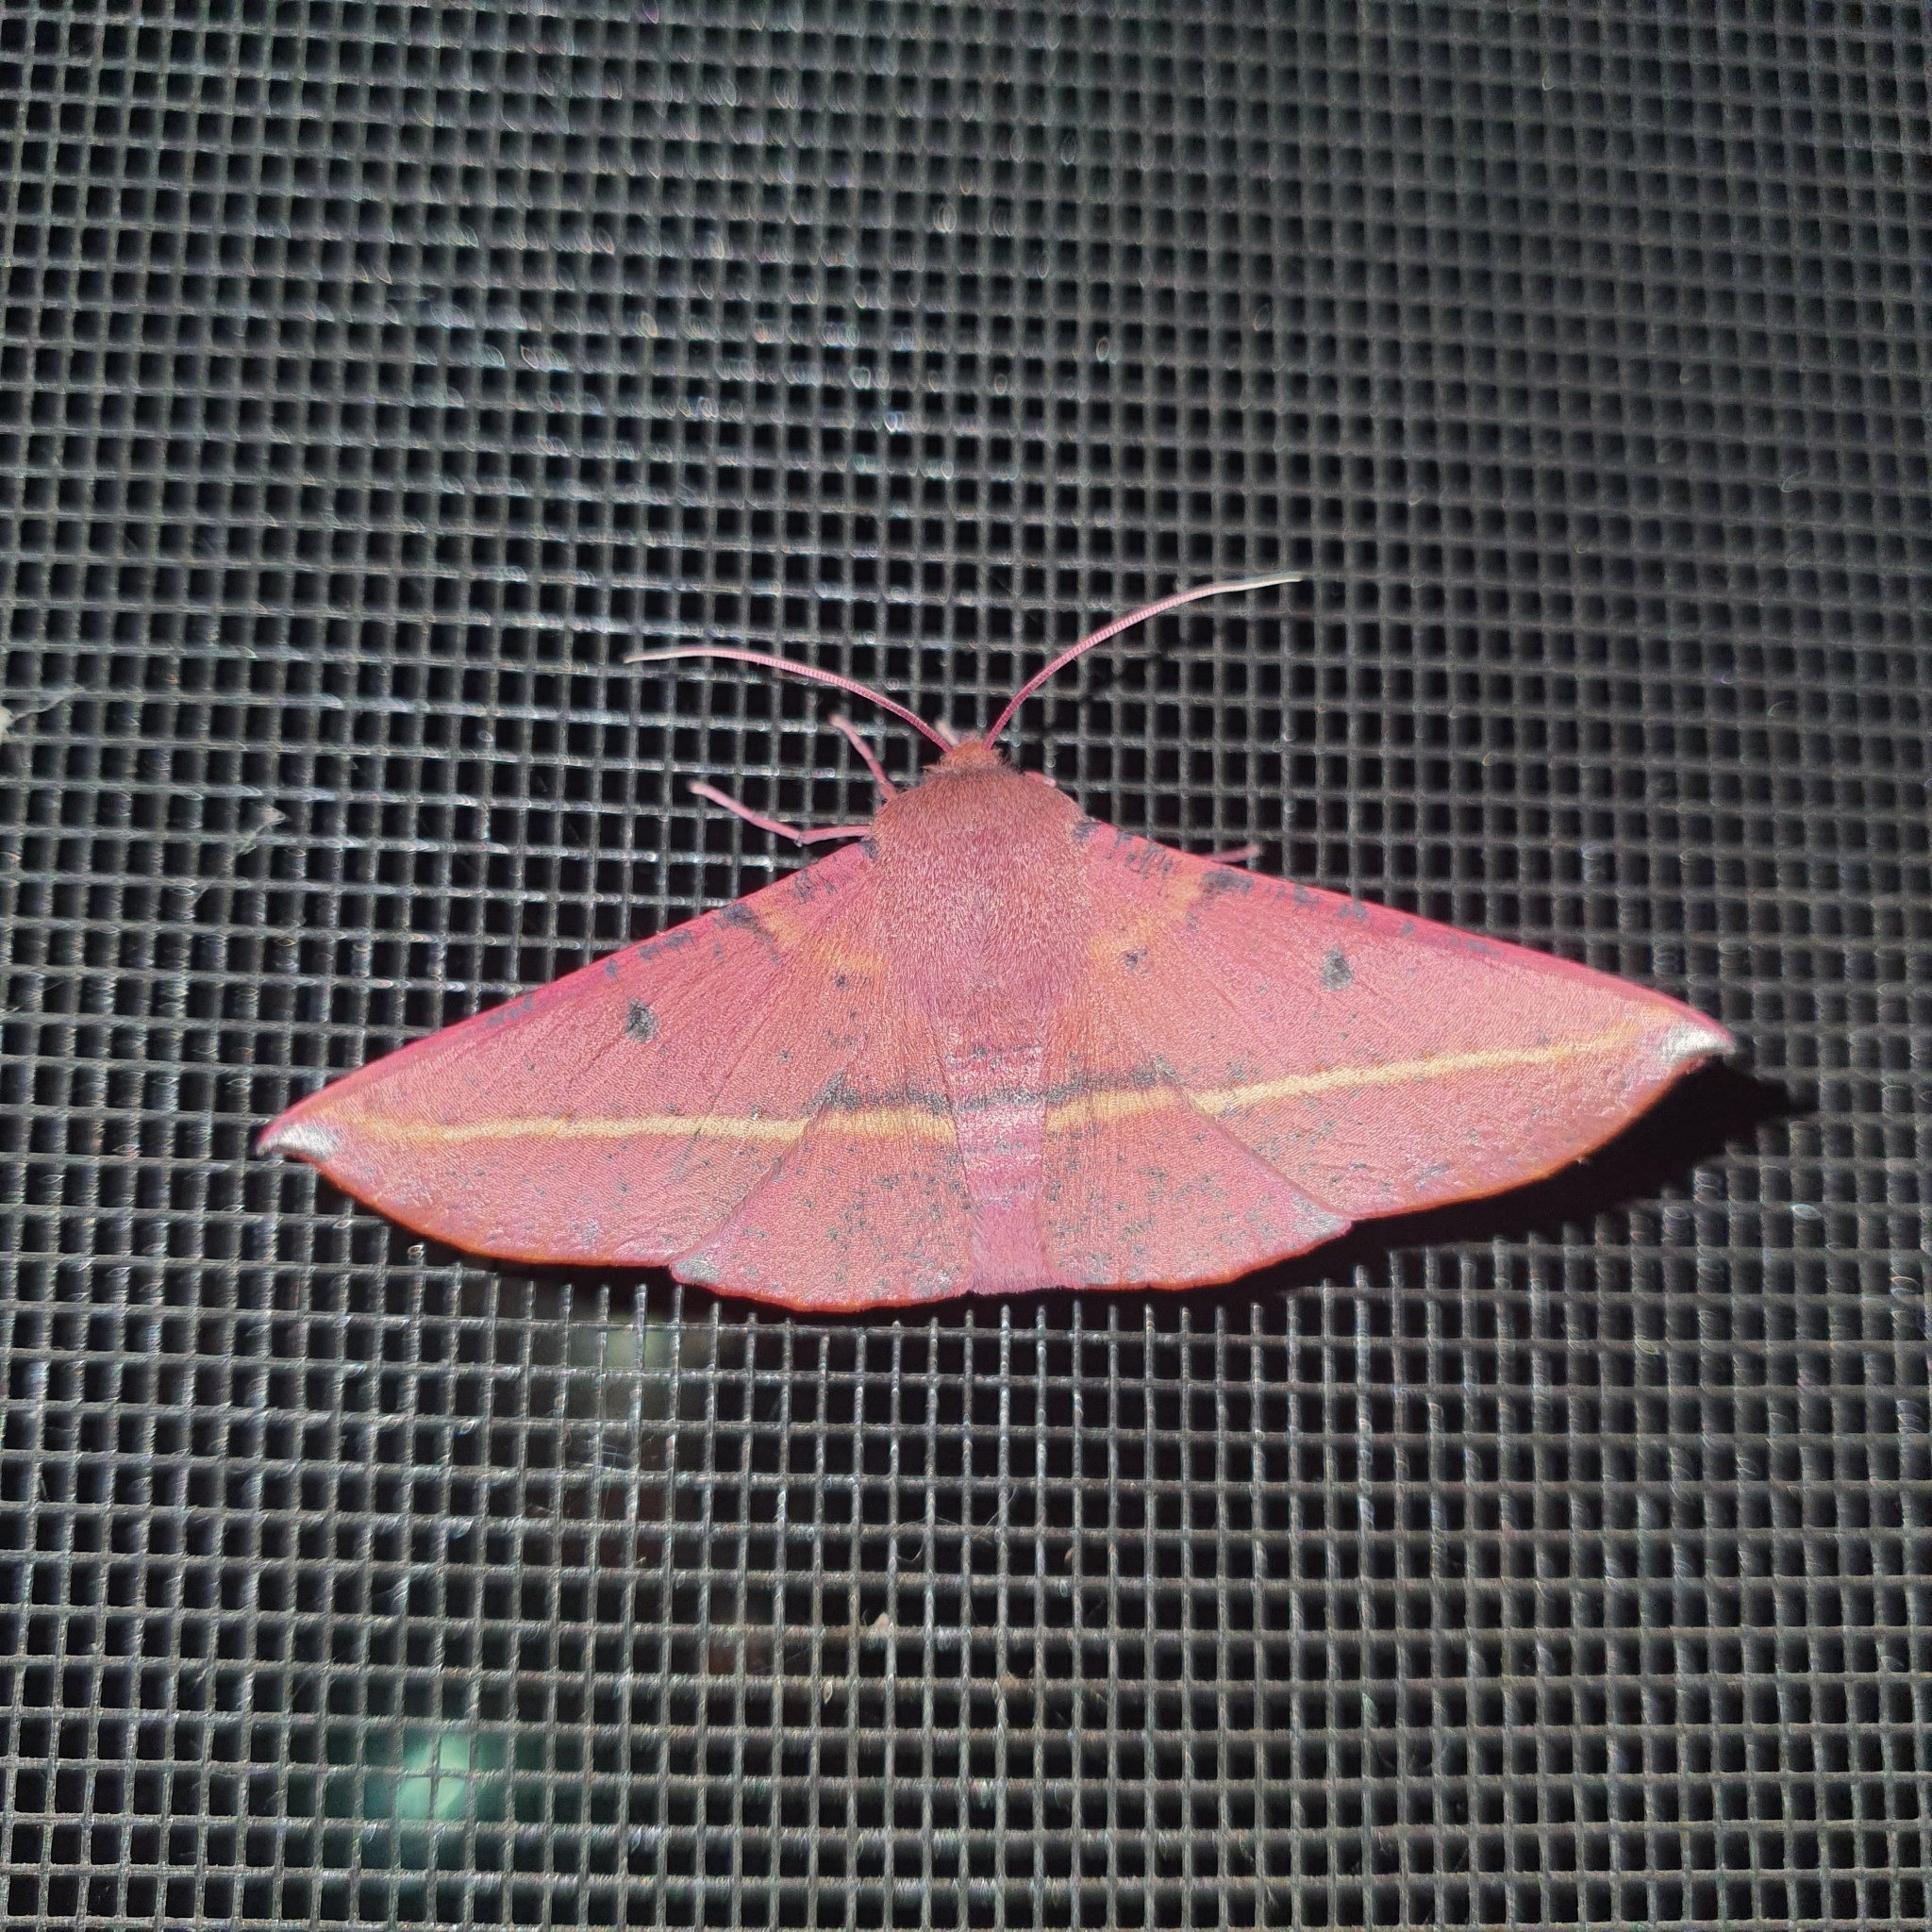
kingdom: Animalia
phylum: Arthropoda
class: Insecta
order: Lepidoptera
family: Geometridae
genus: Oenochroma
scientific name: Oenochroma vinaria
